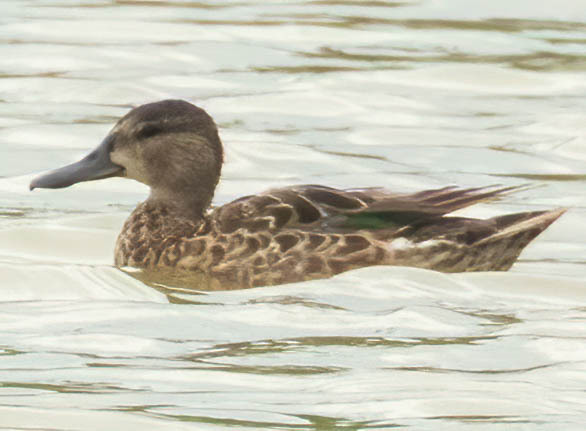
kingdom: Animalia
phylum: Chordata
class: Aves
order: Anseriformes
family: Anatidae
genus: Spatula
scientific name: Spatula discors
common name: Blue-winged teal
